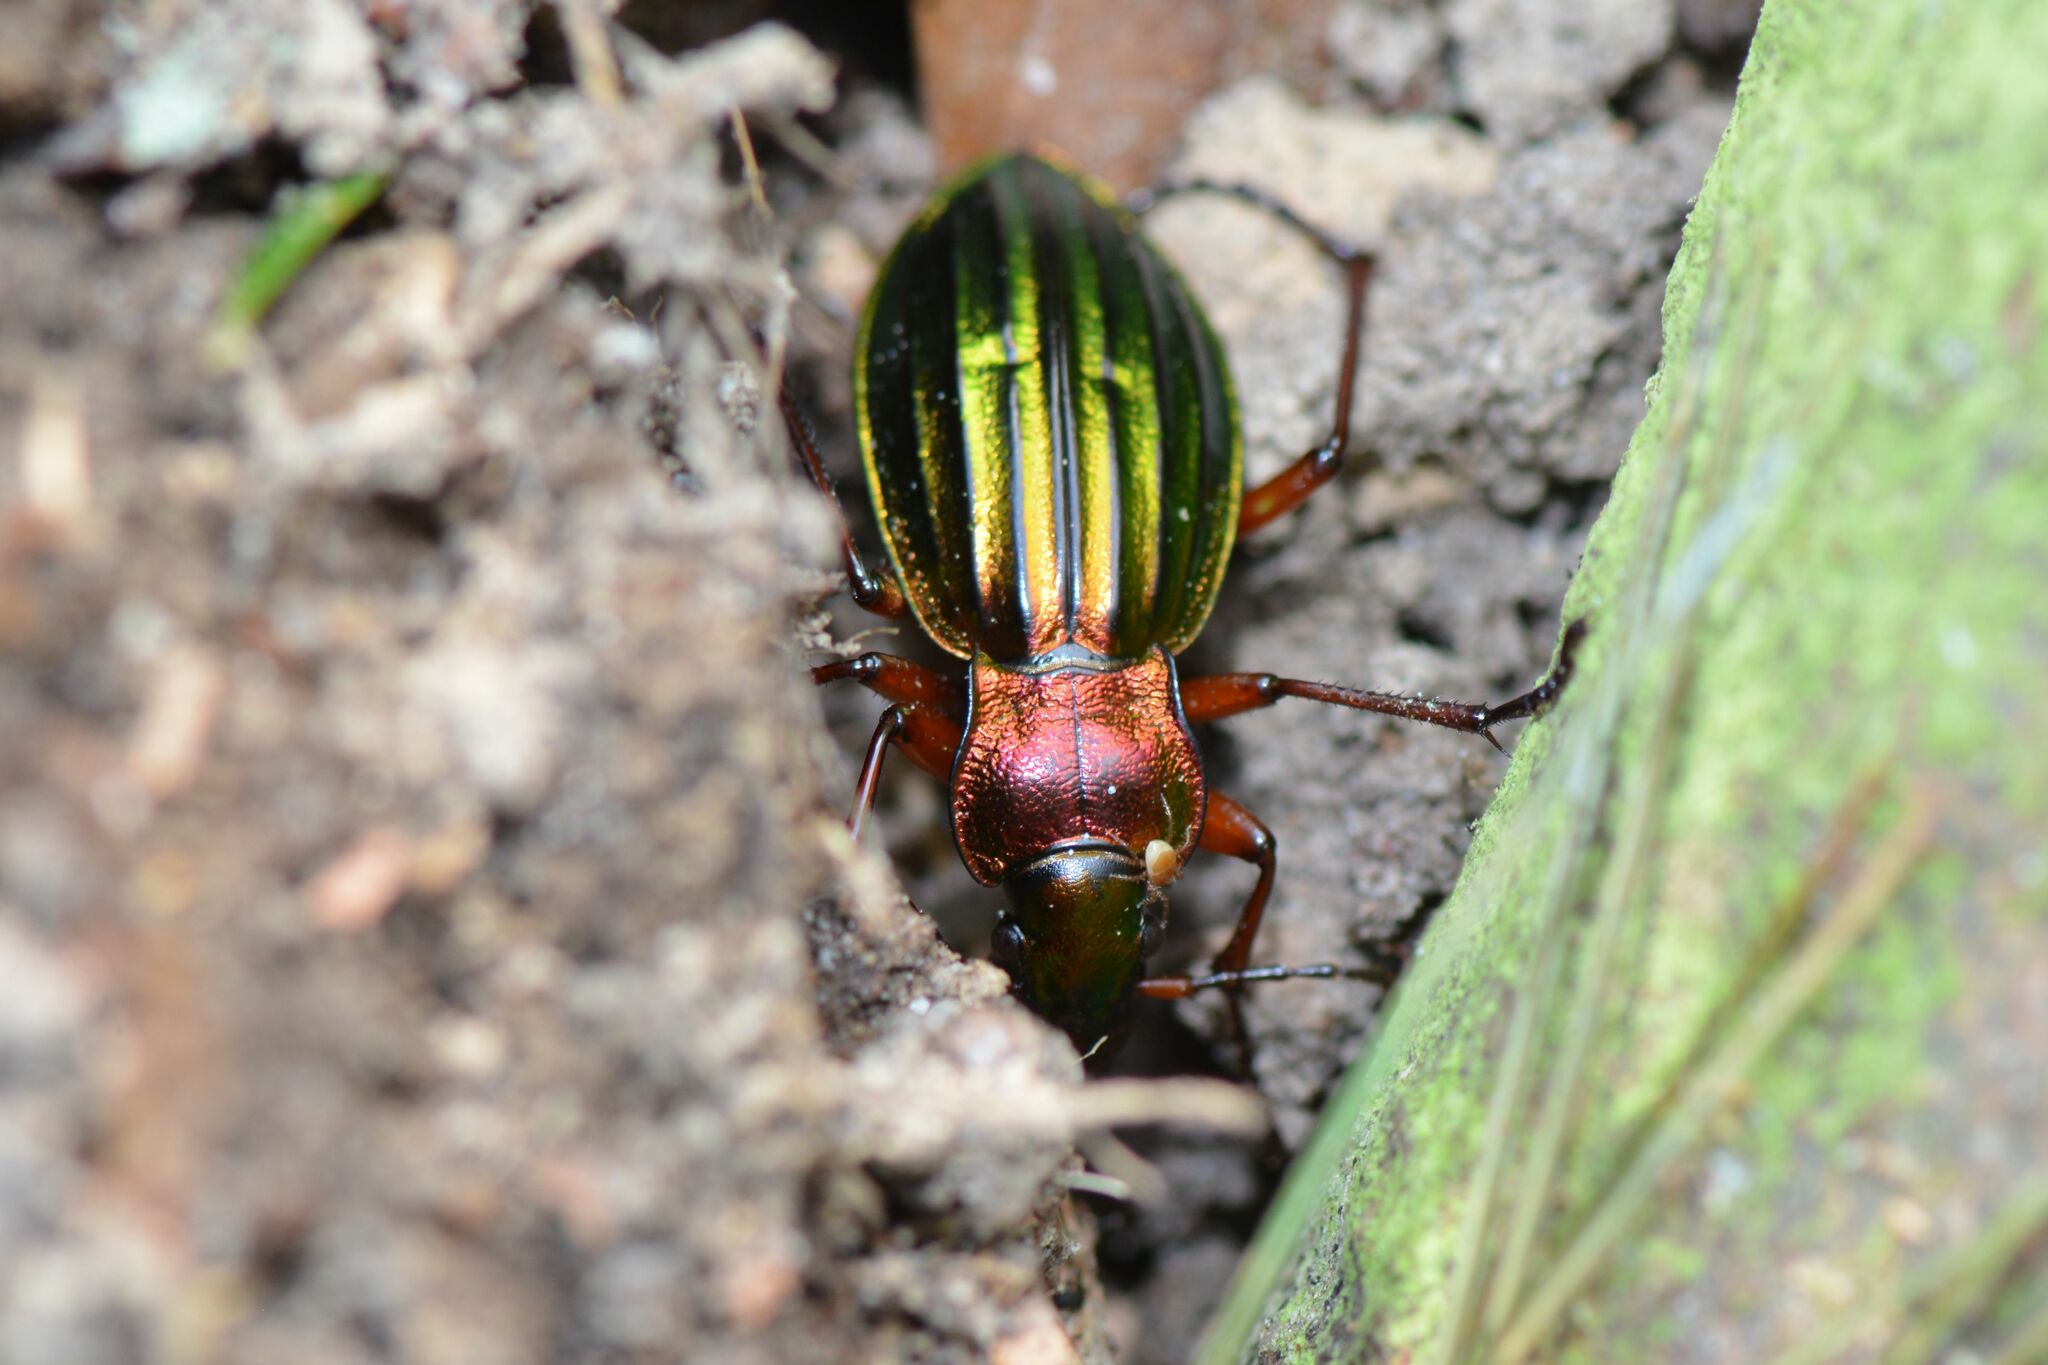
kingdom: Animalia
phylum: Arthropoda
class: Insecta
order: Coleoptera
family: Carabidae
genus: Carabus
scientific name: Carabus auronitens
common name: Carabus auronitens
